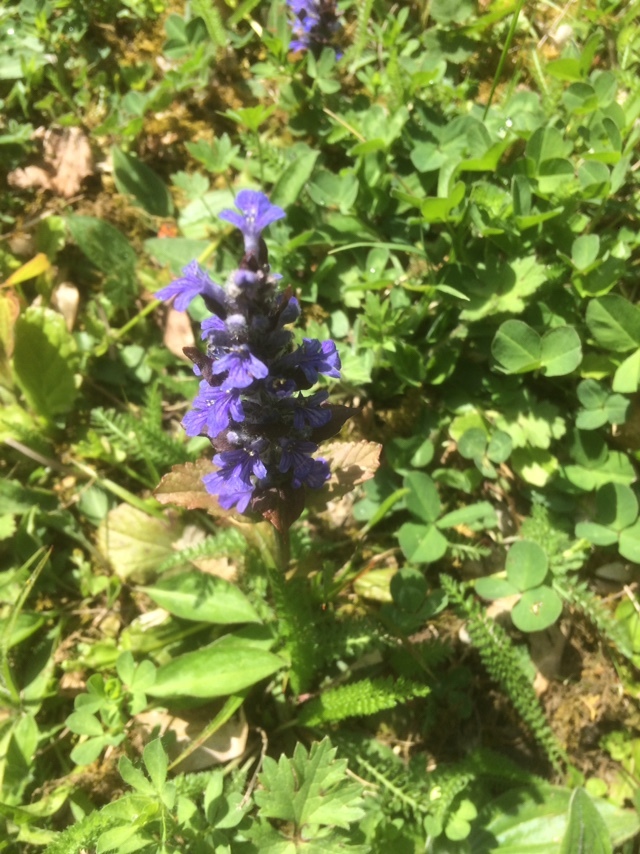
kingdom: Plantae
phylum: Tracheophyta
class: Magnoliopsida
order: Lamiales
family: Lamiaceae
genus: Ajuga
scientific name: Ajuga reptans
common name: Bugle
